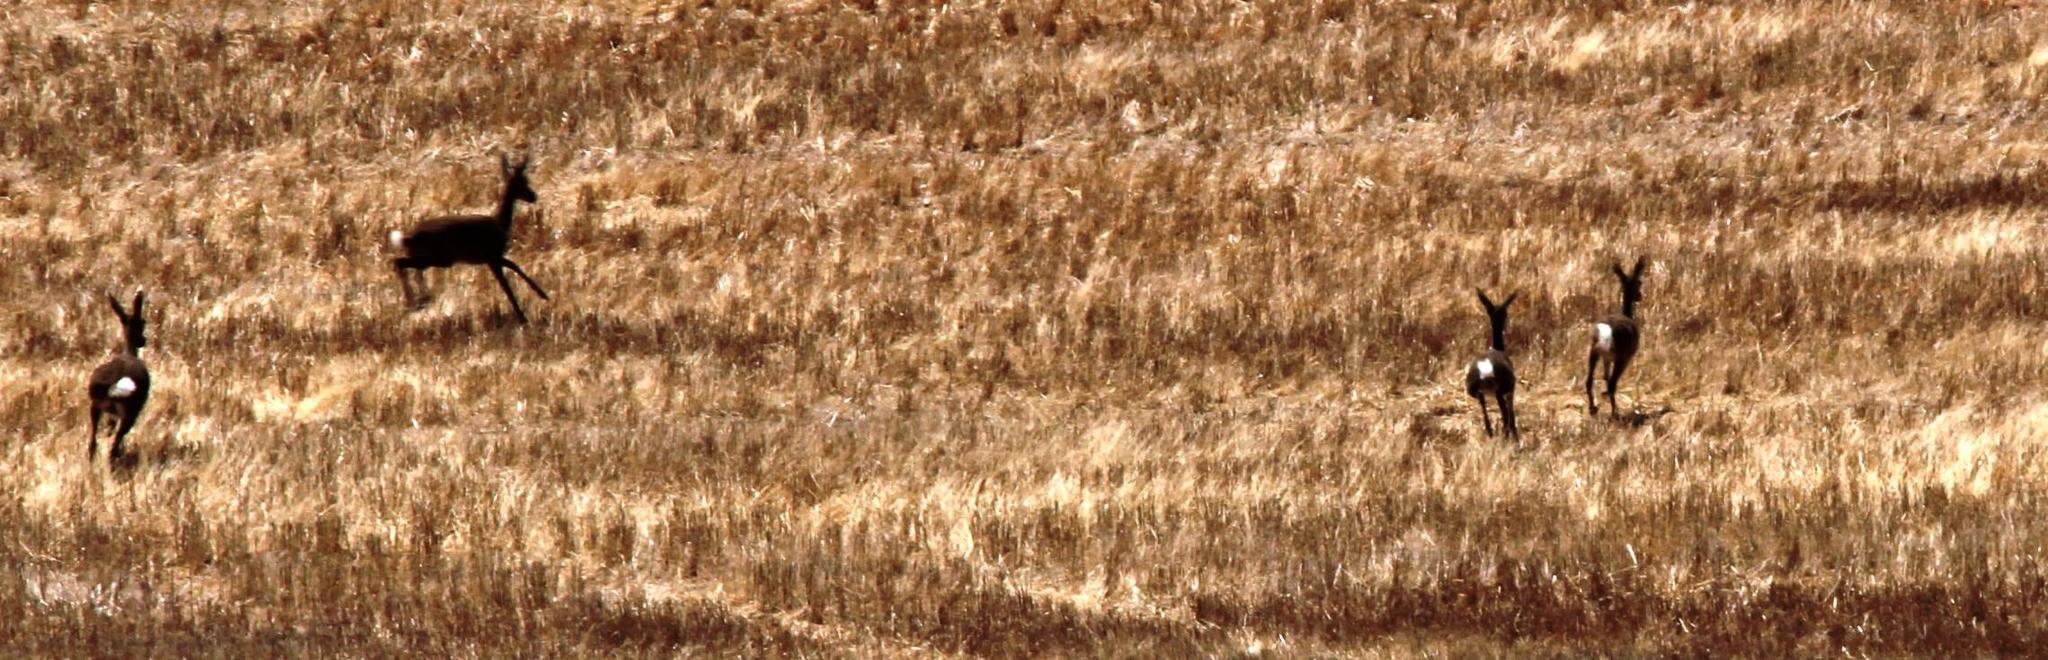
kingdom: Animalia
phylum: Chordata
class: Mammalia
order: Artiodactyla
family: Bovidae
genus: Pelea
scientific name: Pelea capreolus
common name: Common rhebok
